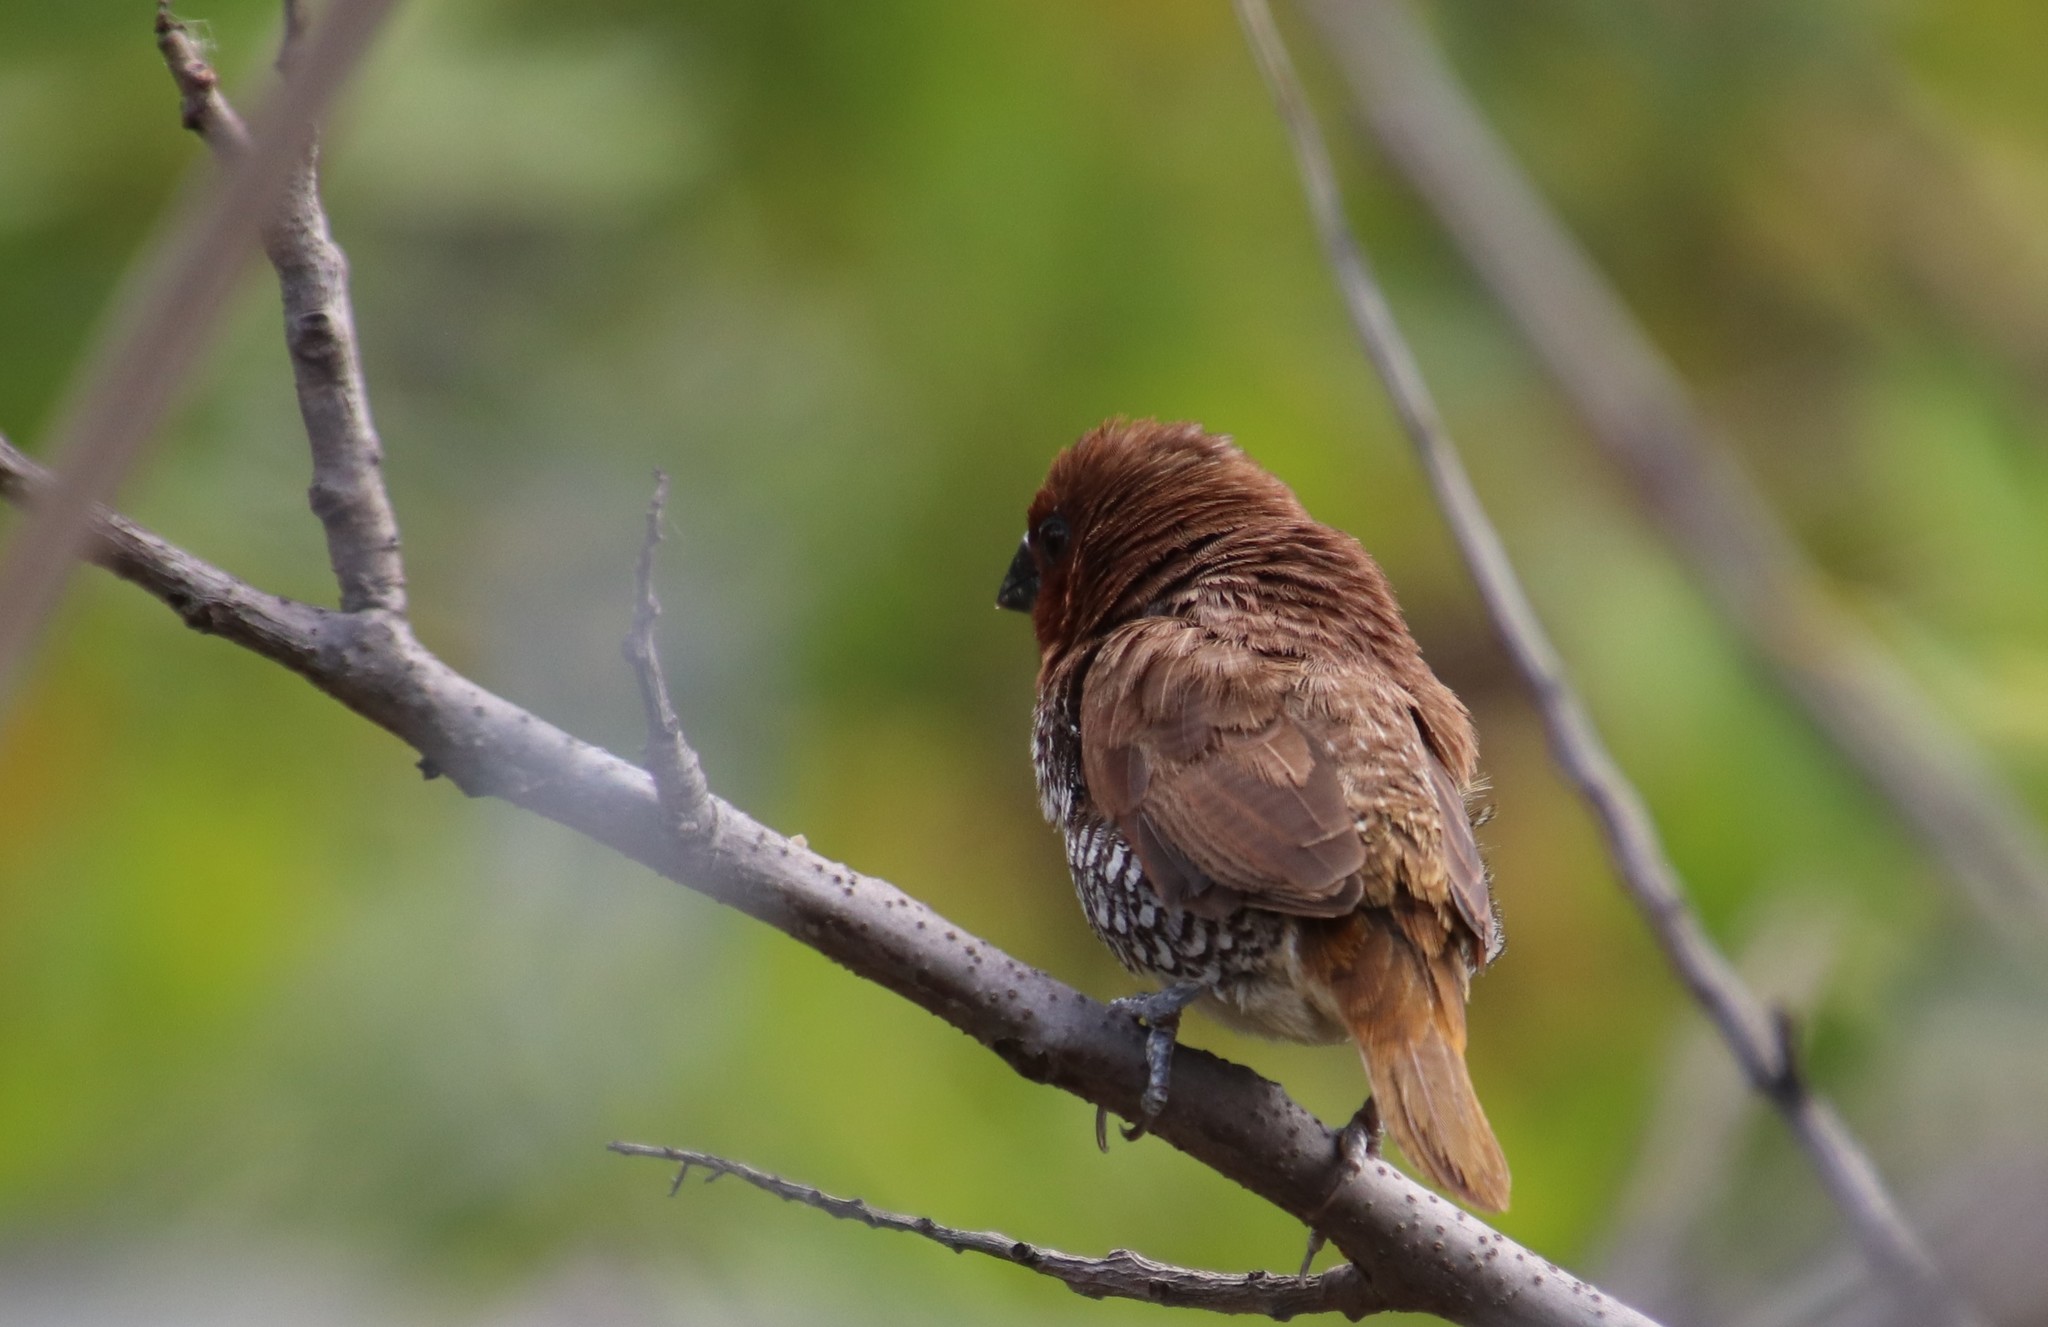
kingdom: Animalia
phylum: Chordata
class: Aves
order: Passeriformes
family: Estrildidae
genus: Lonchura
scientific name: Lonchura punctulata
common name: Scaly-breasted munia
